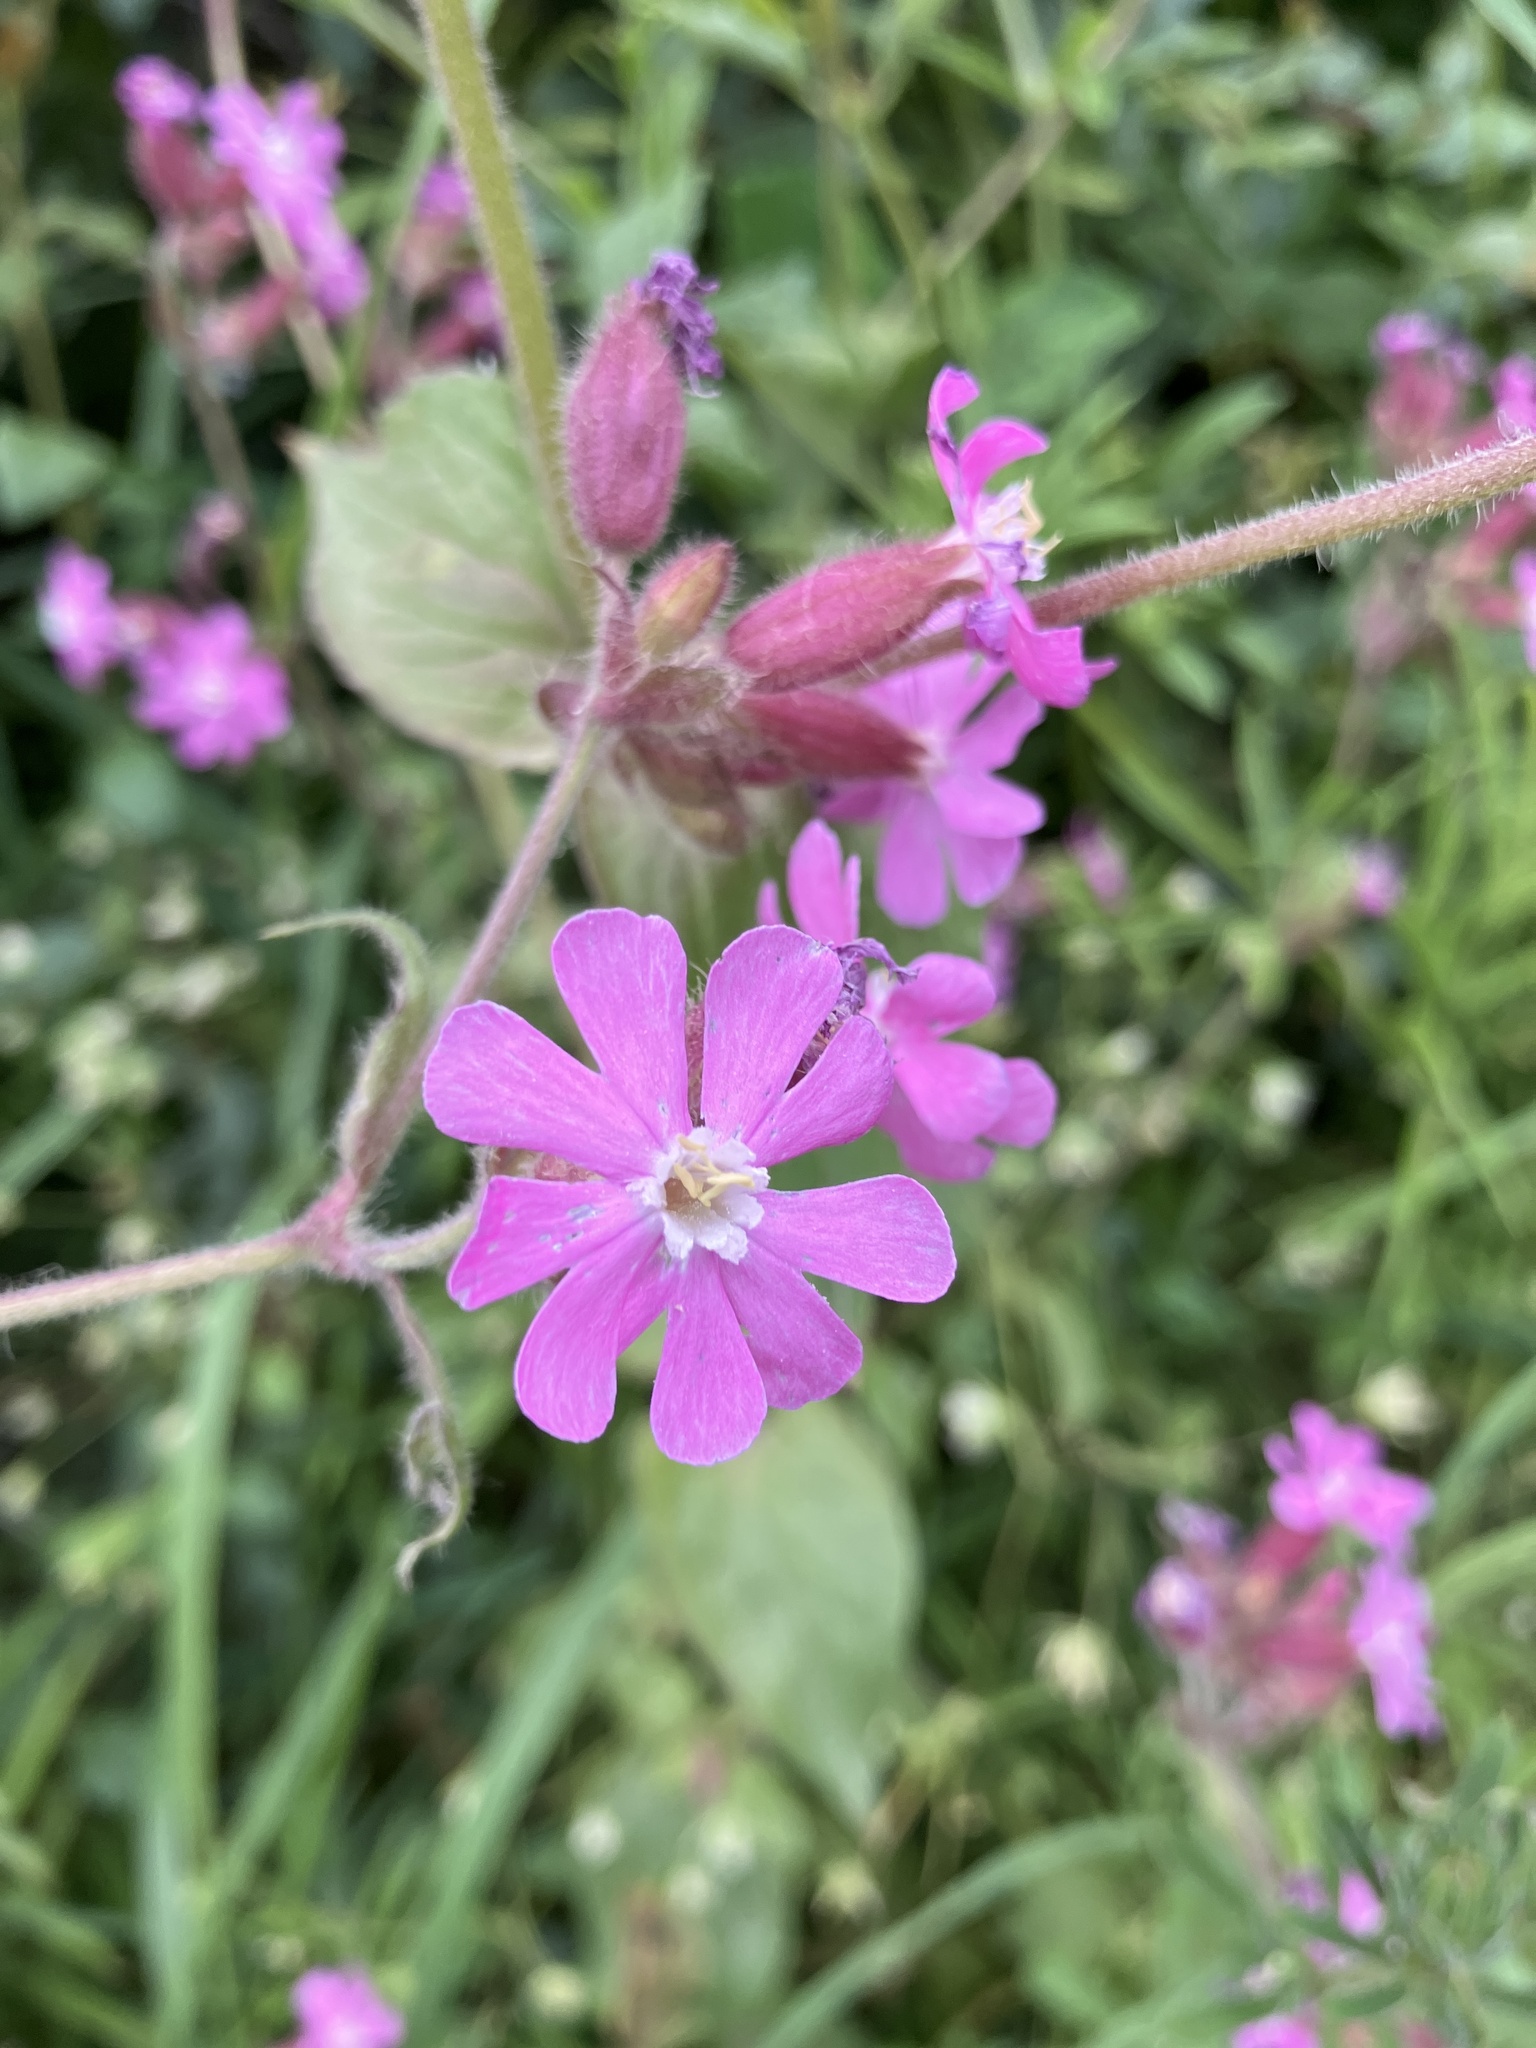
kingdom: Plantae
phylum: Tracheophyta
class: Magnoliopsida
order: Caryophyllales
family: Caryophyllaceae
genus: Silene
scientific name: Silene dioica
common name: Red campion
